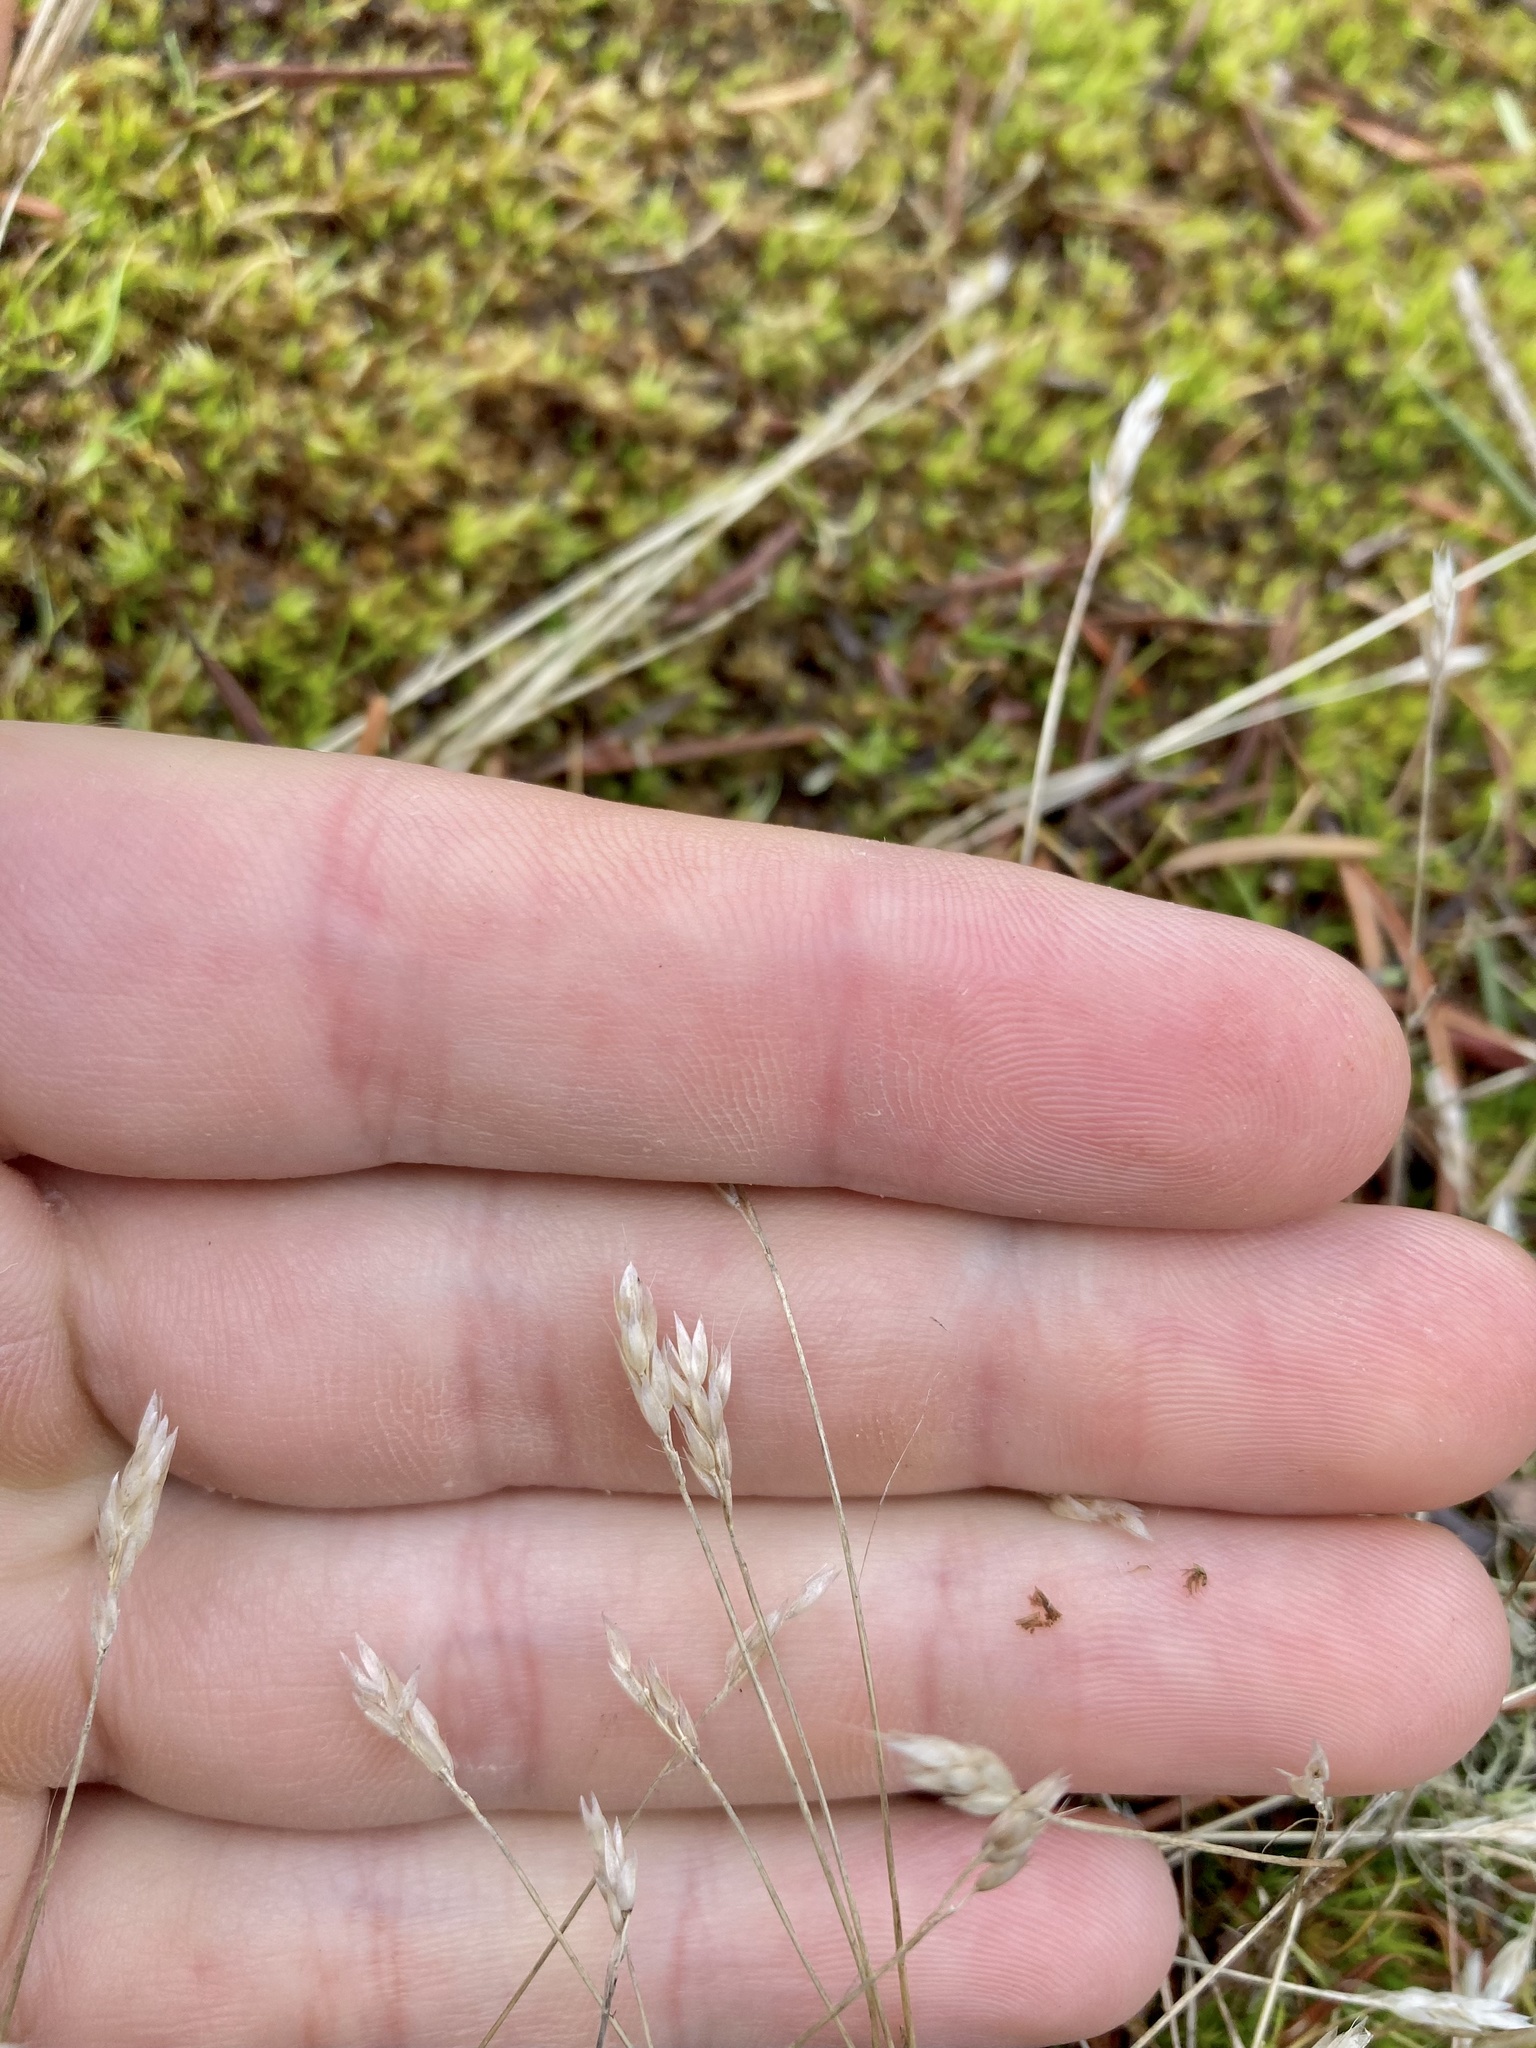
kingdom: Plantae
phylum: Tracheophyta
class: Liliopsida
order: Poales
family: Poaceae
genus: Aira
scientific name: Aira praecox
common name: Early hair-grass
